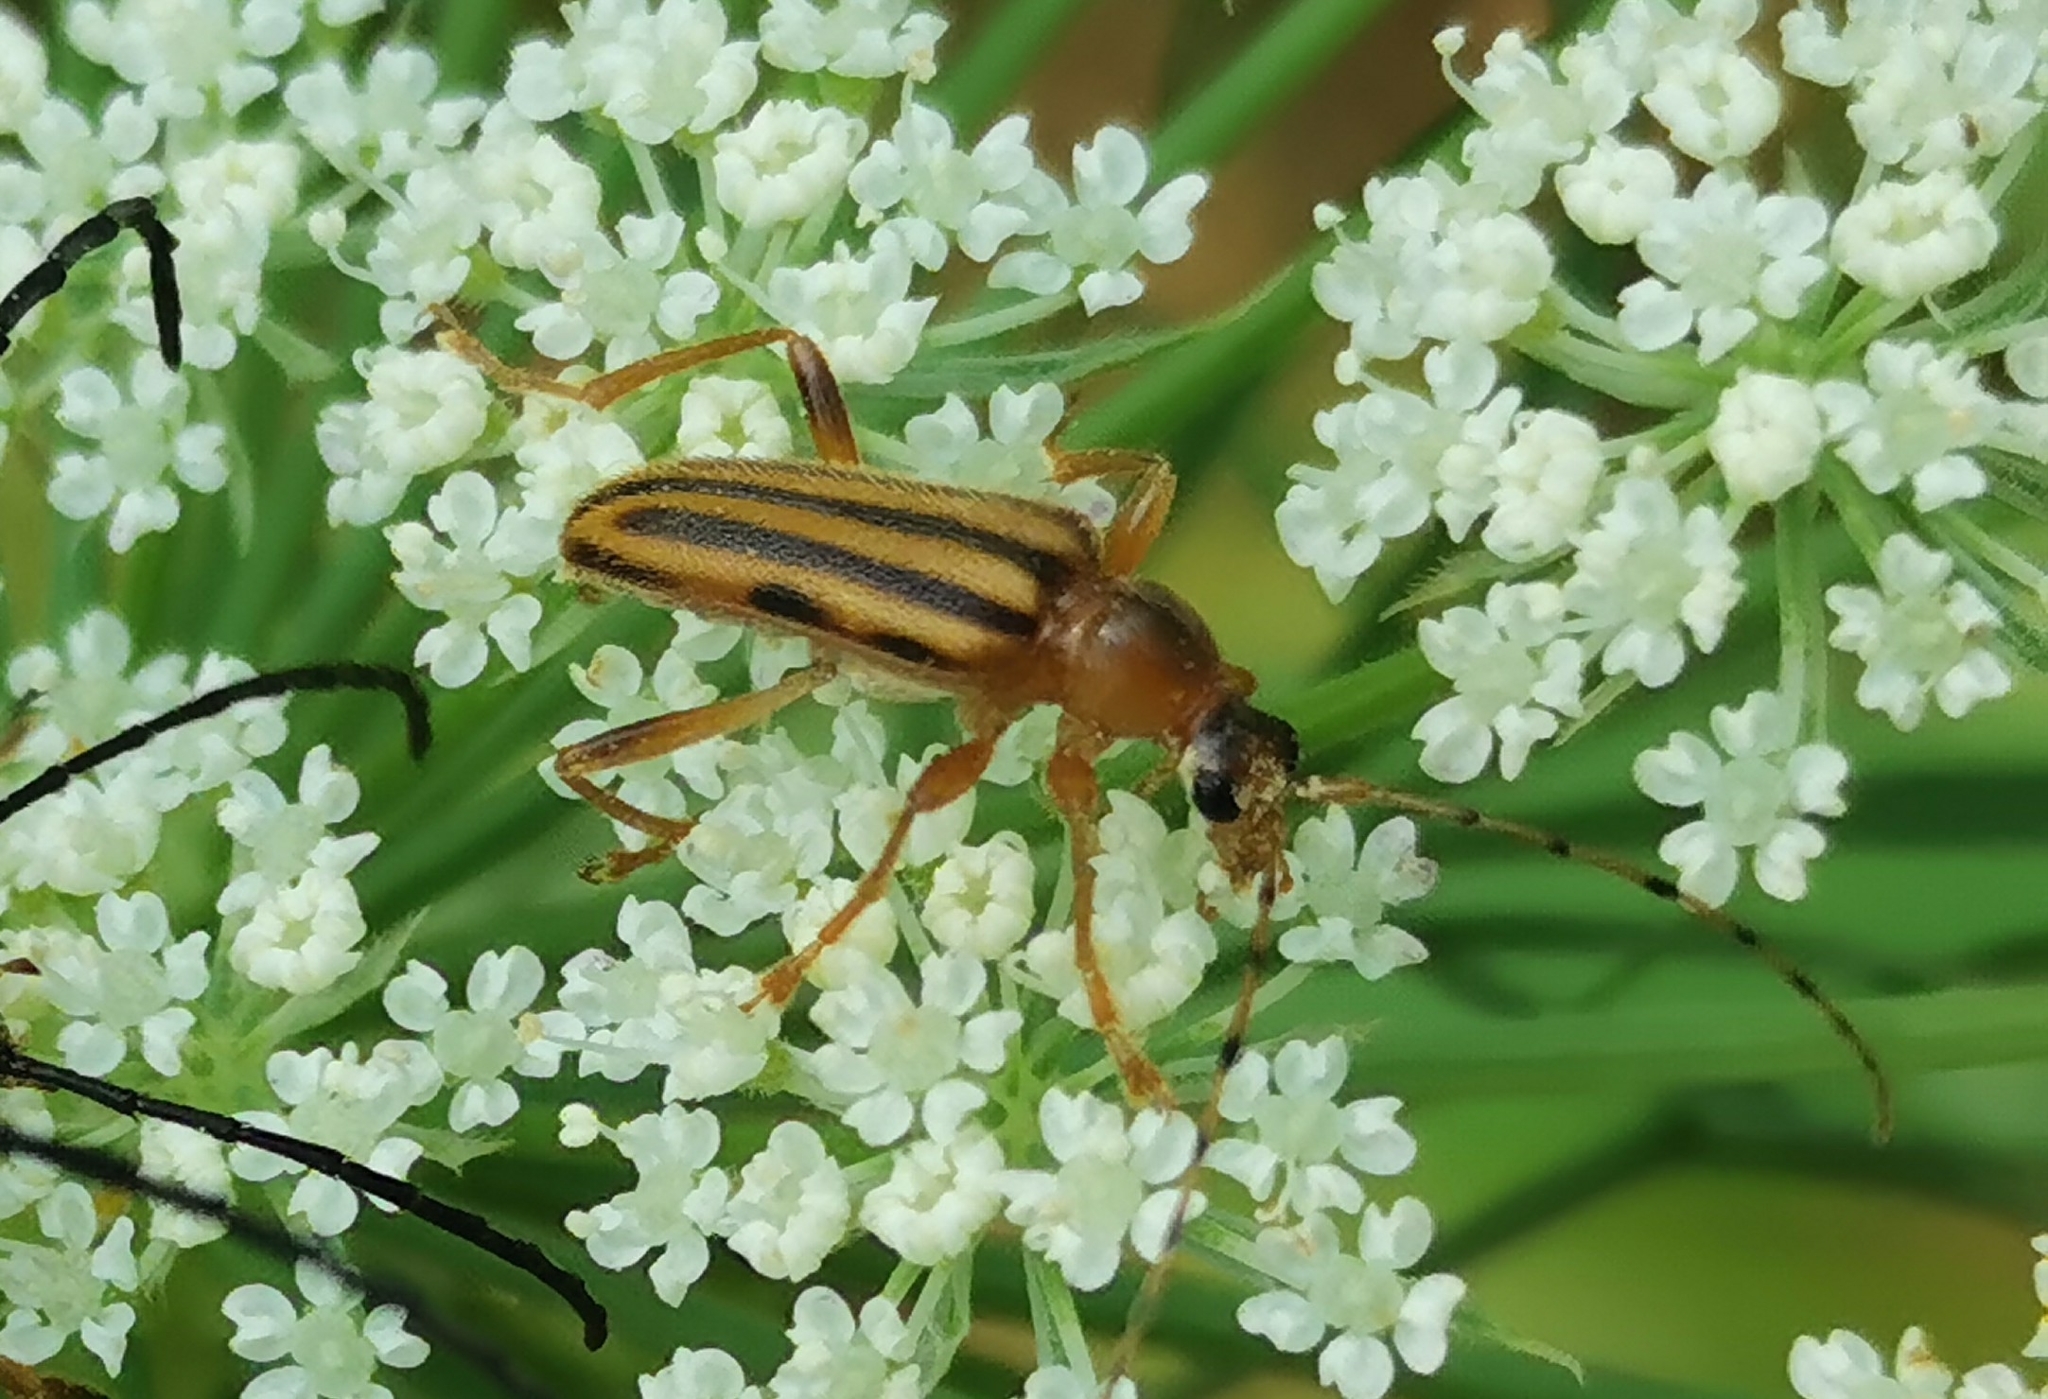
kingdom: Animalia
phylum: Arthropoda
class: Insecta
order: Coleoptera
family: Cerambycidae
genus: Analeptura
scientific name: Analeptura lineola
